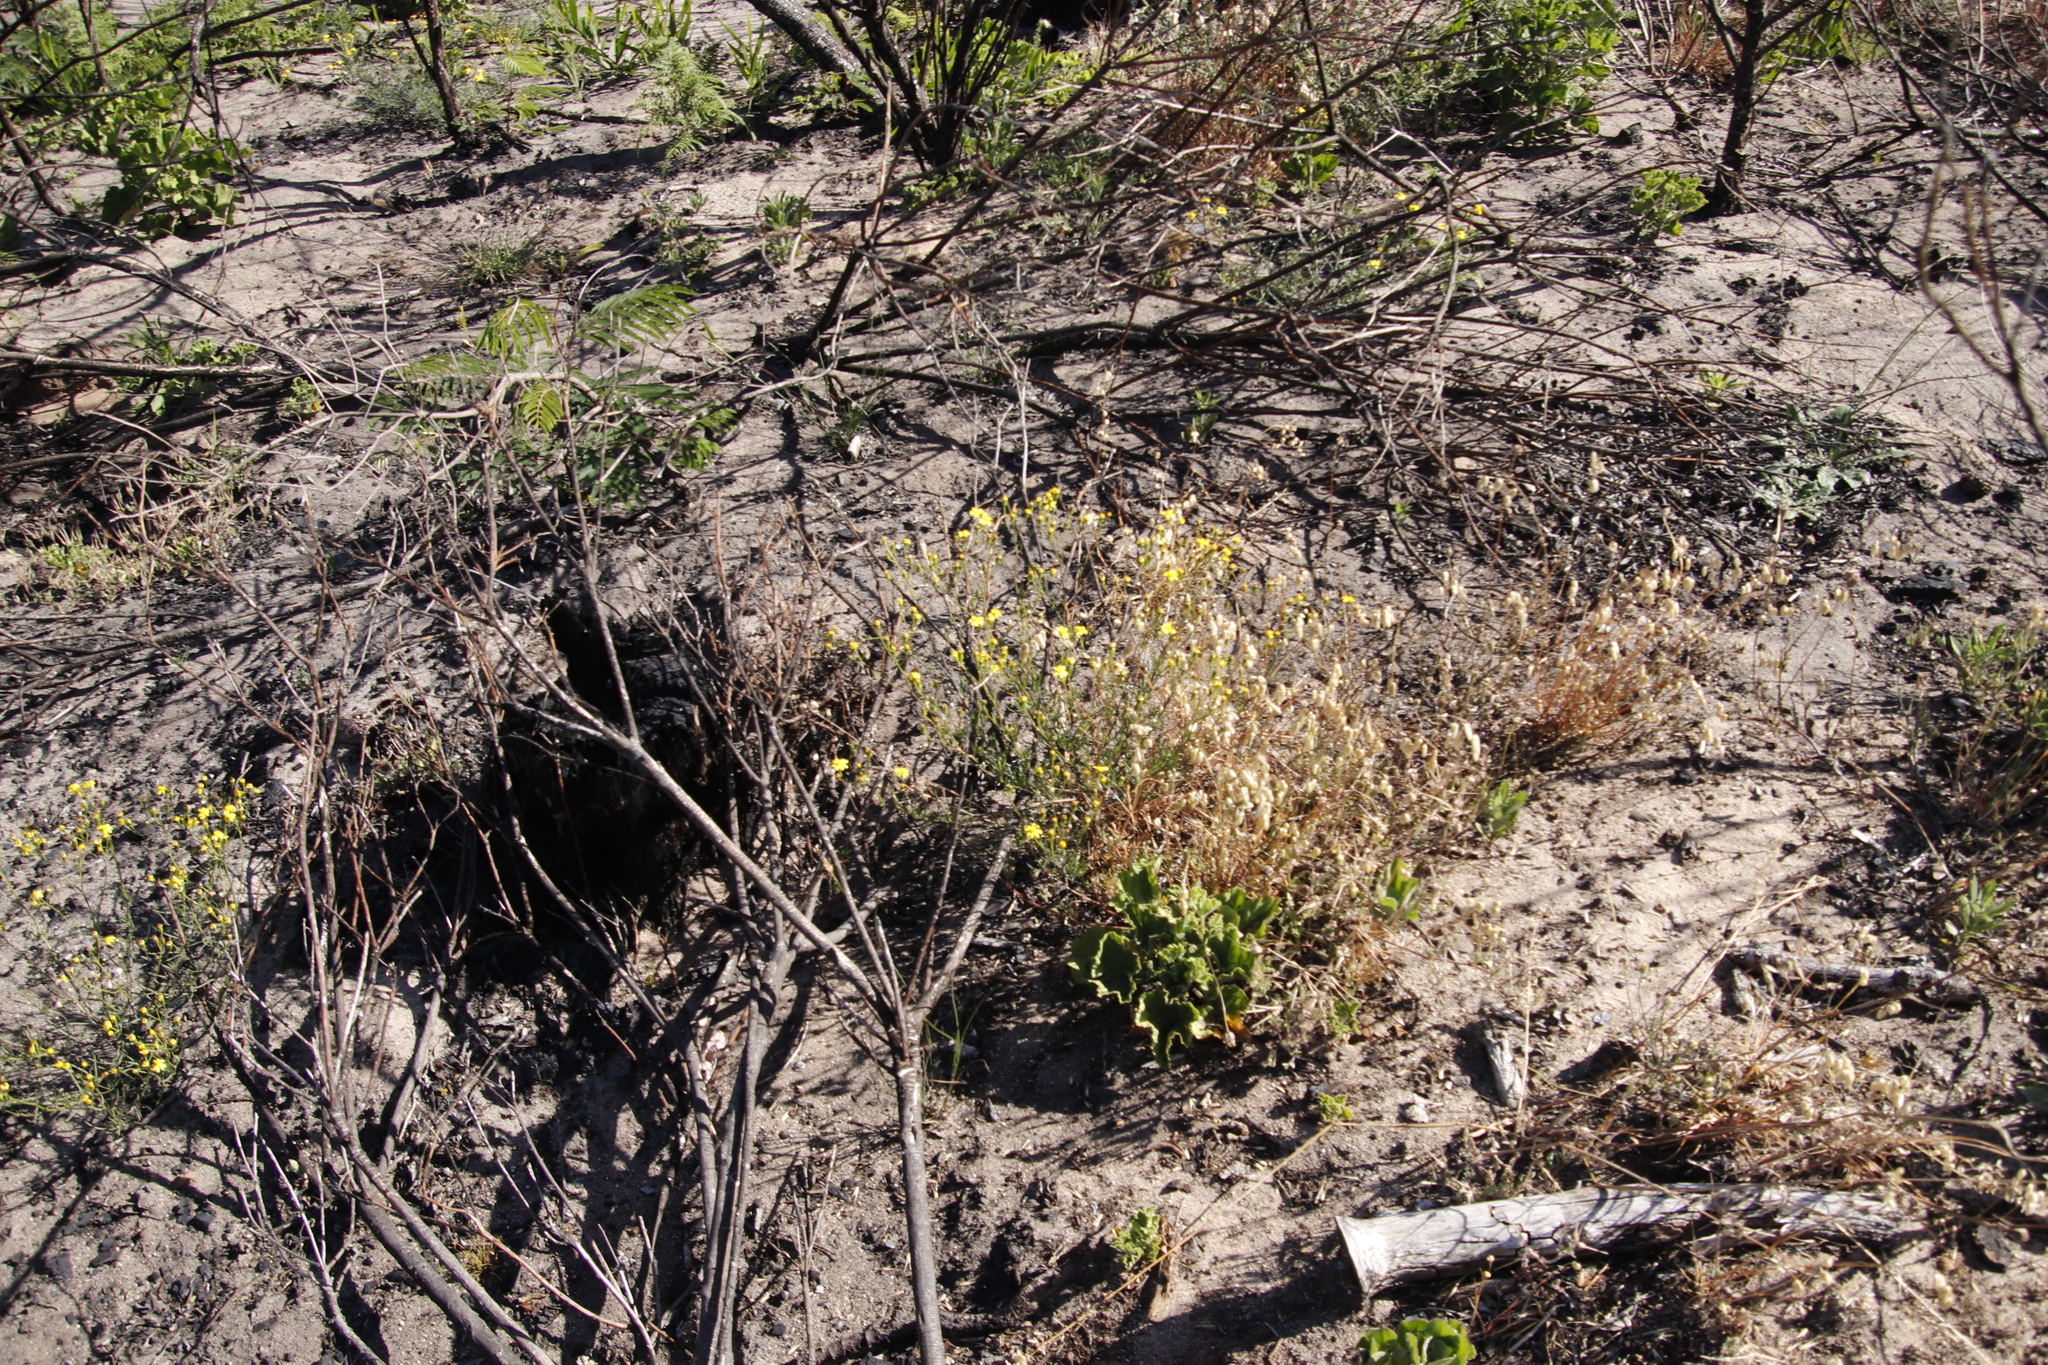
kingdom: Plantae
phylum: Tracheophyta
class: Magnoliopsida
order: Asterales
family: Asteraceae
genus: Senecio
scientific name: Senecio burchellii
